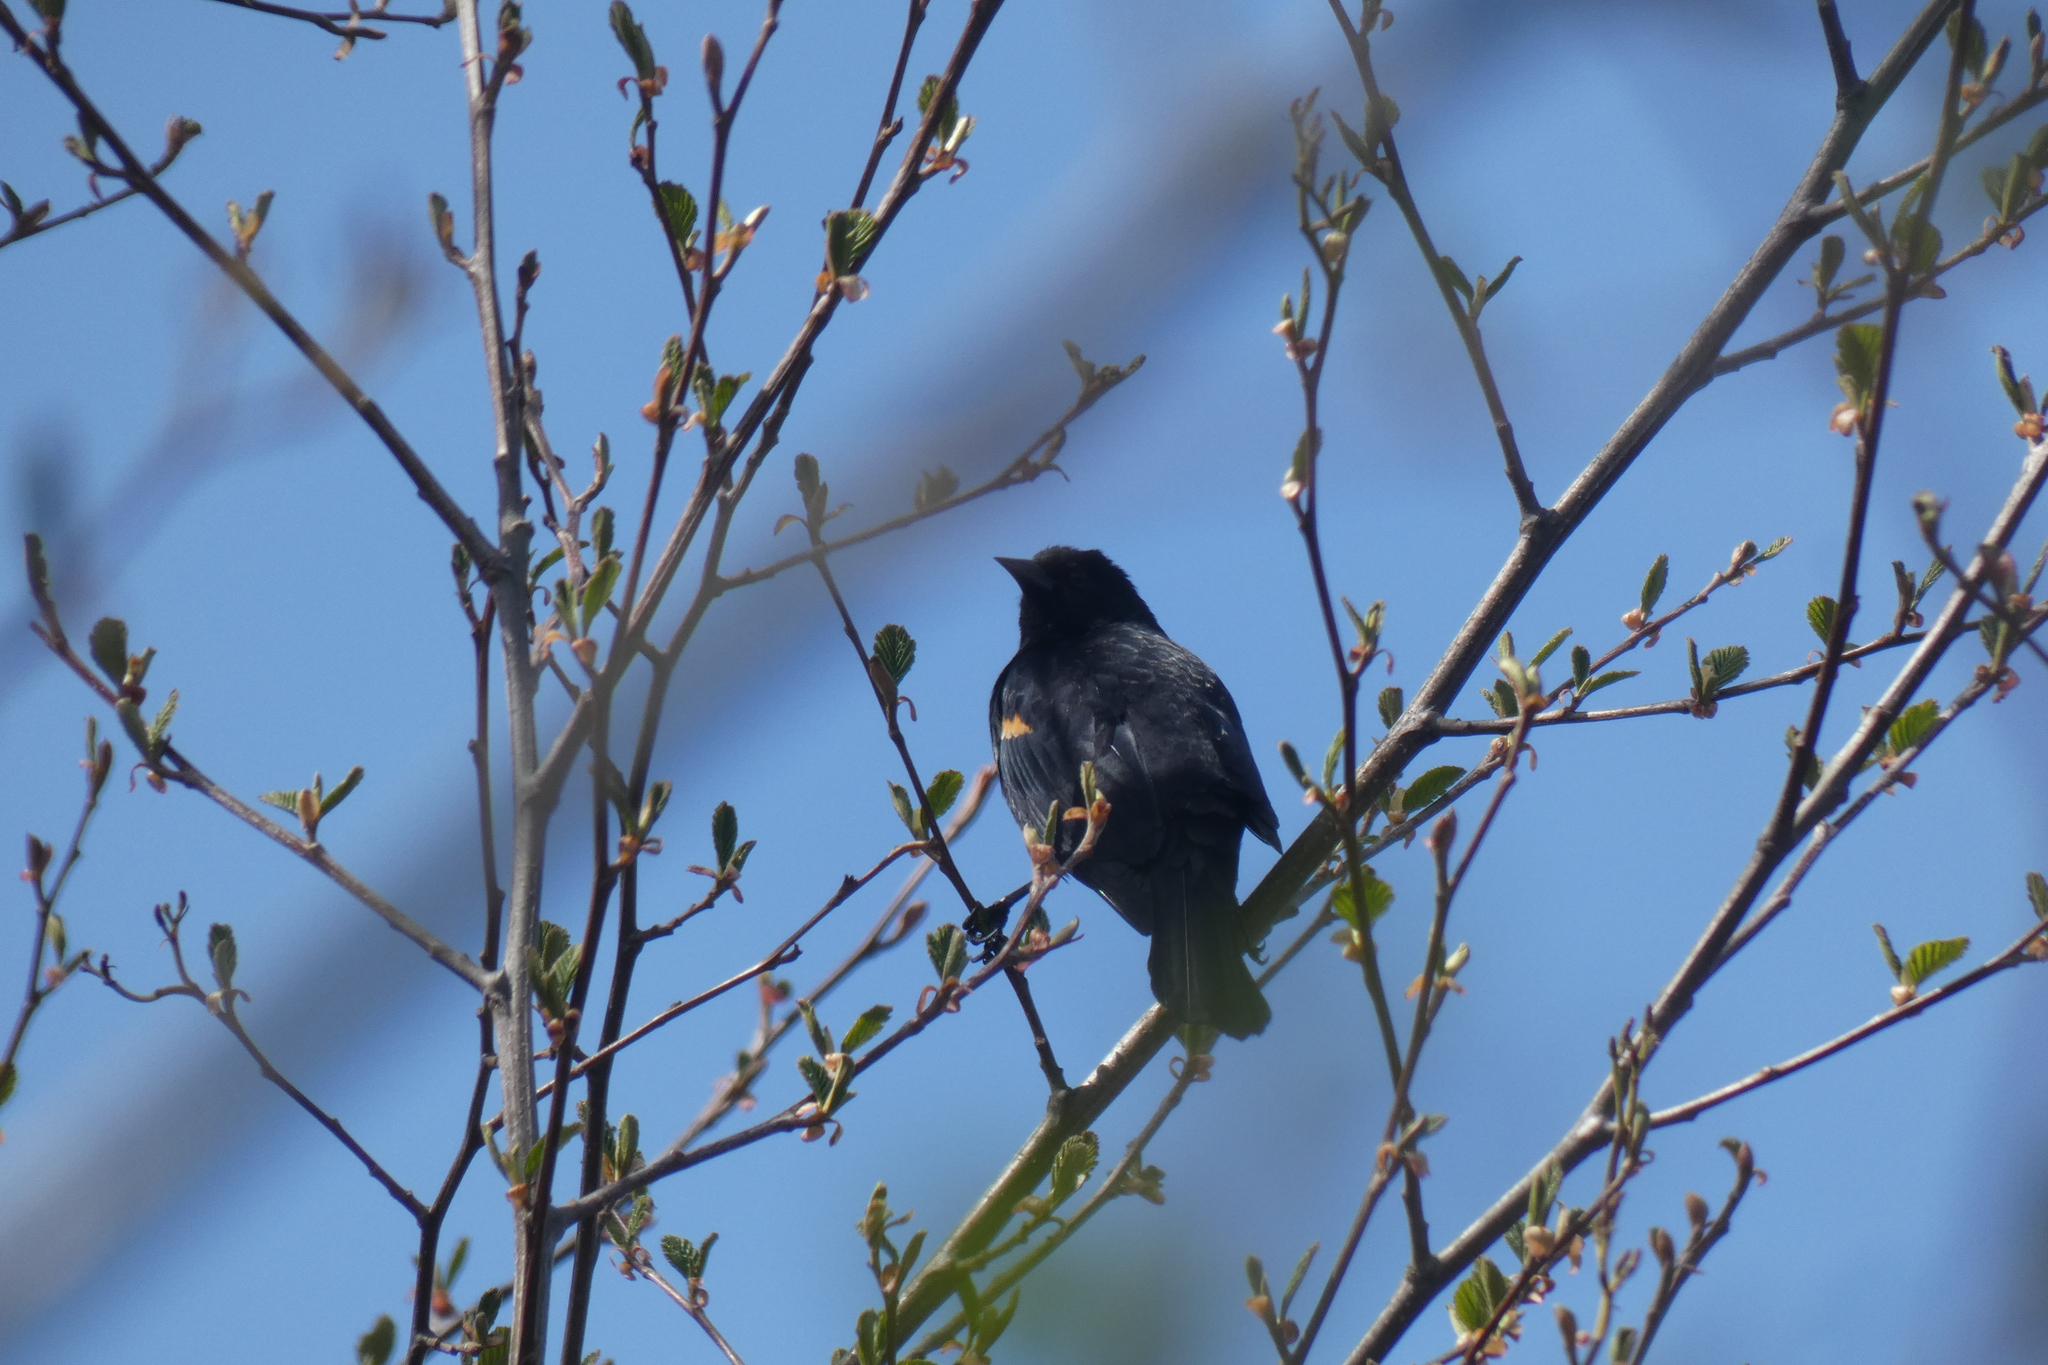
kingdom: Animalia
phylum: Chordata
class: Aves
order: Passeriformes
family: Icteridae
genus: Agelaius
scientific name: Agelaius phoeniceus
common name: Red-winged blackbird
